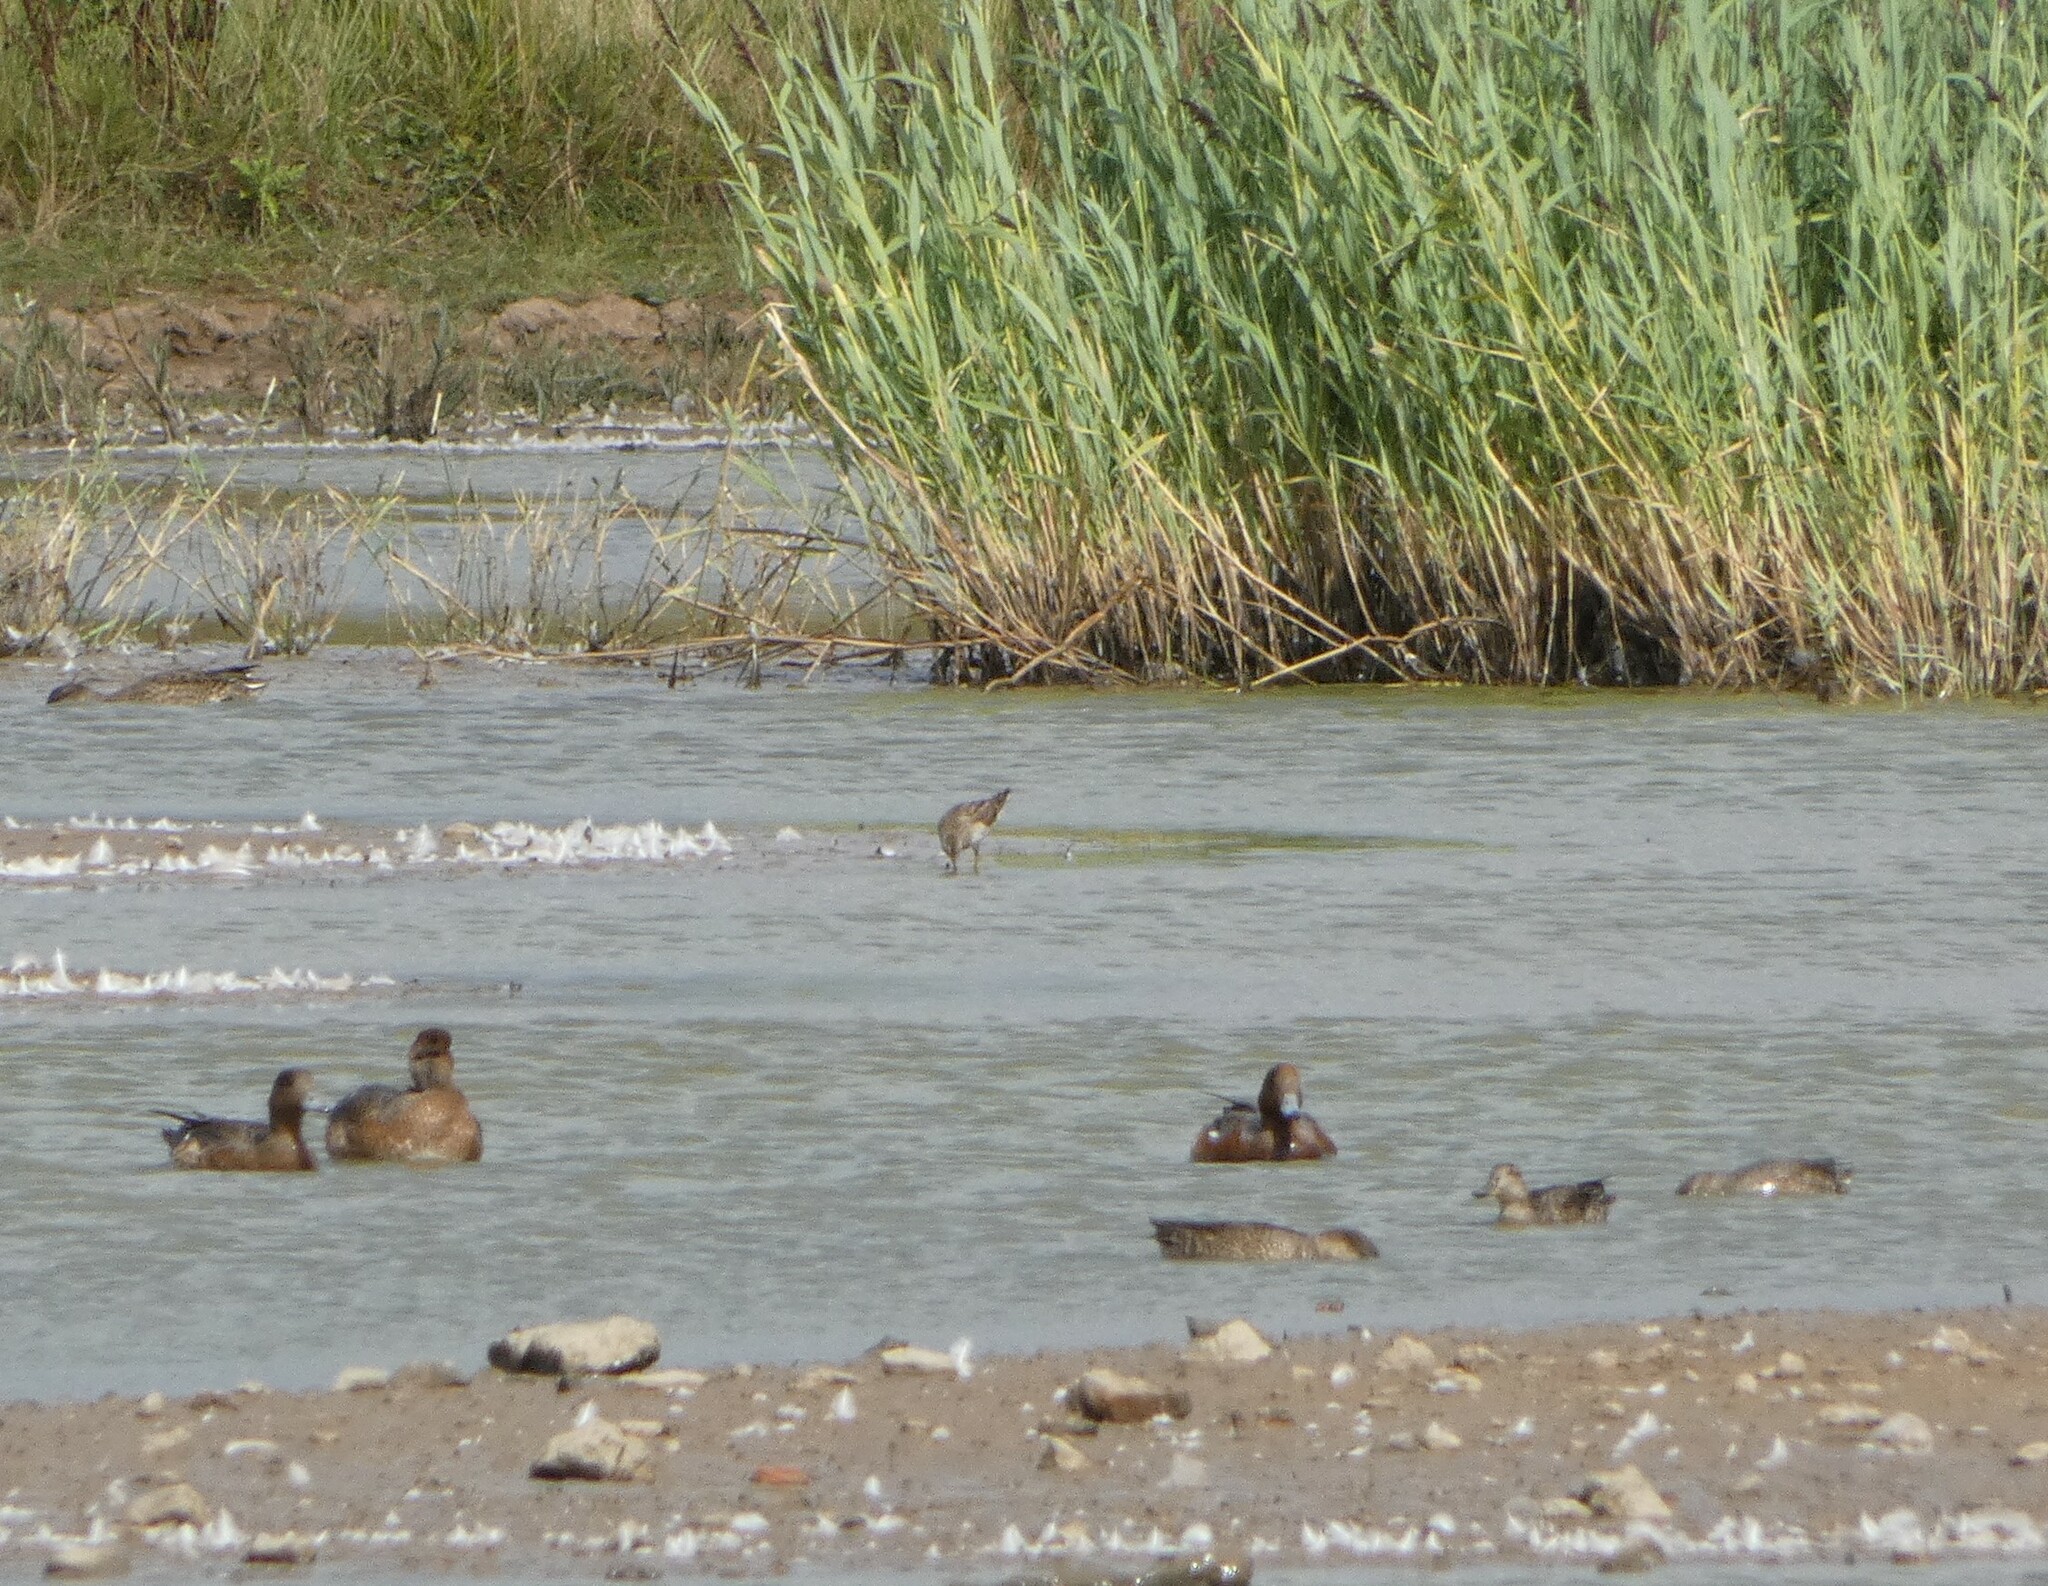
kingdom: Animalia
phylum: Chordata
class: Aves
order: Charadriiformes
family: Scolopacidae
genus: Calidris
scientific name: Calidris melanotos
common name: Pectoral sandpiper
